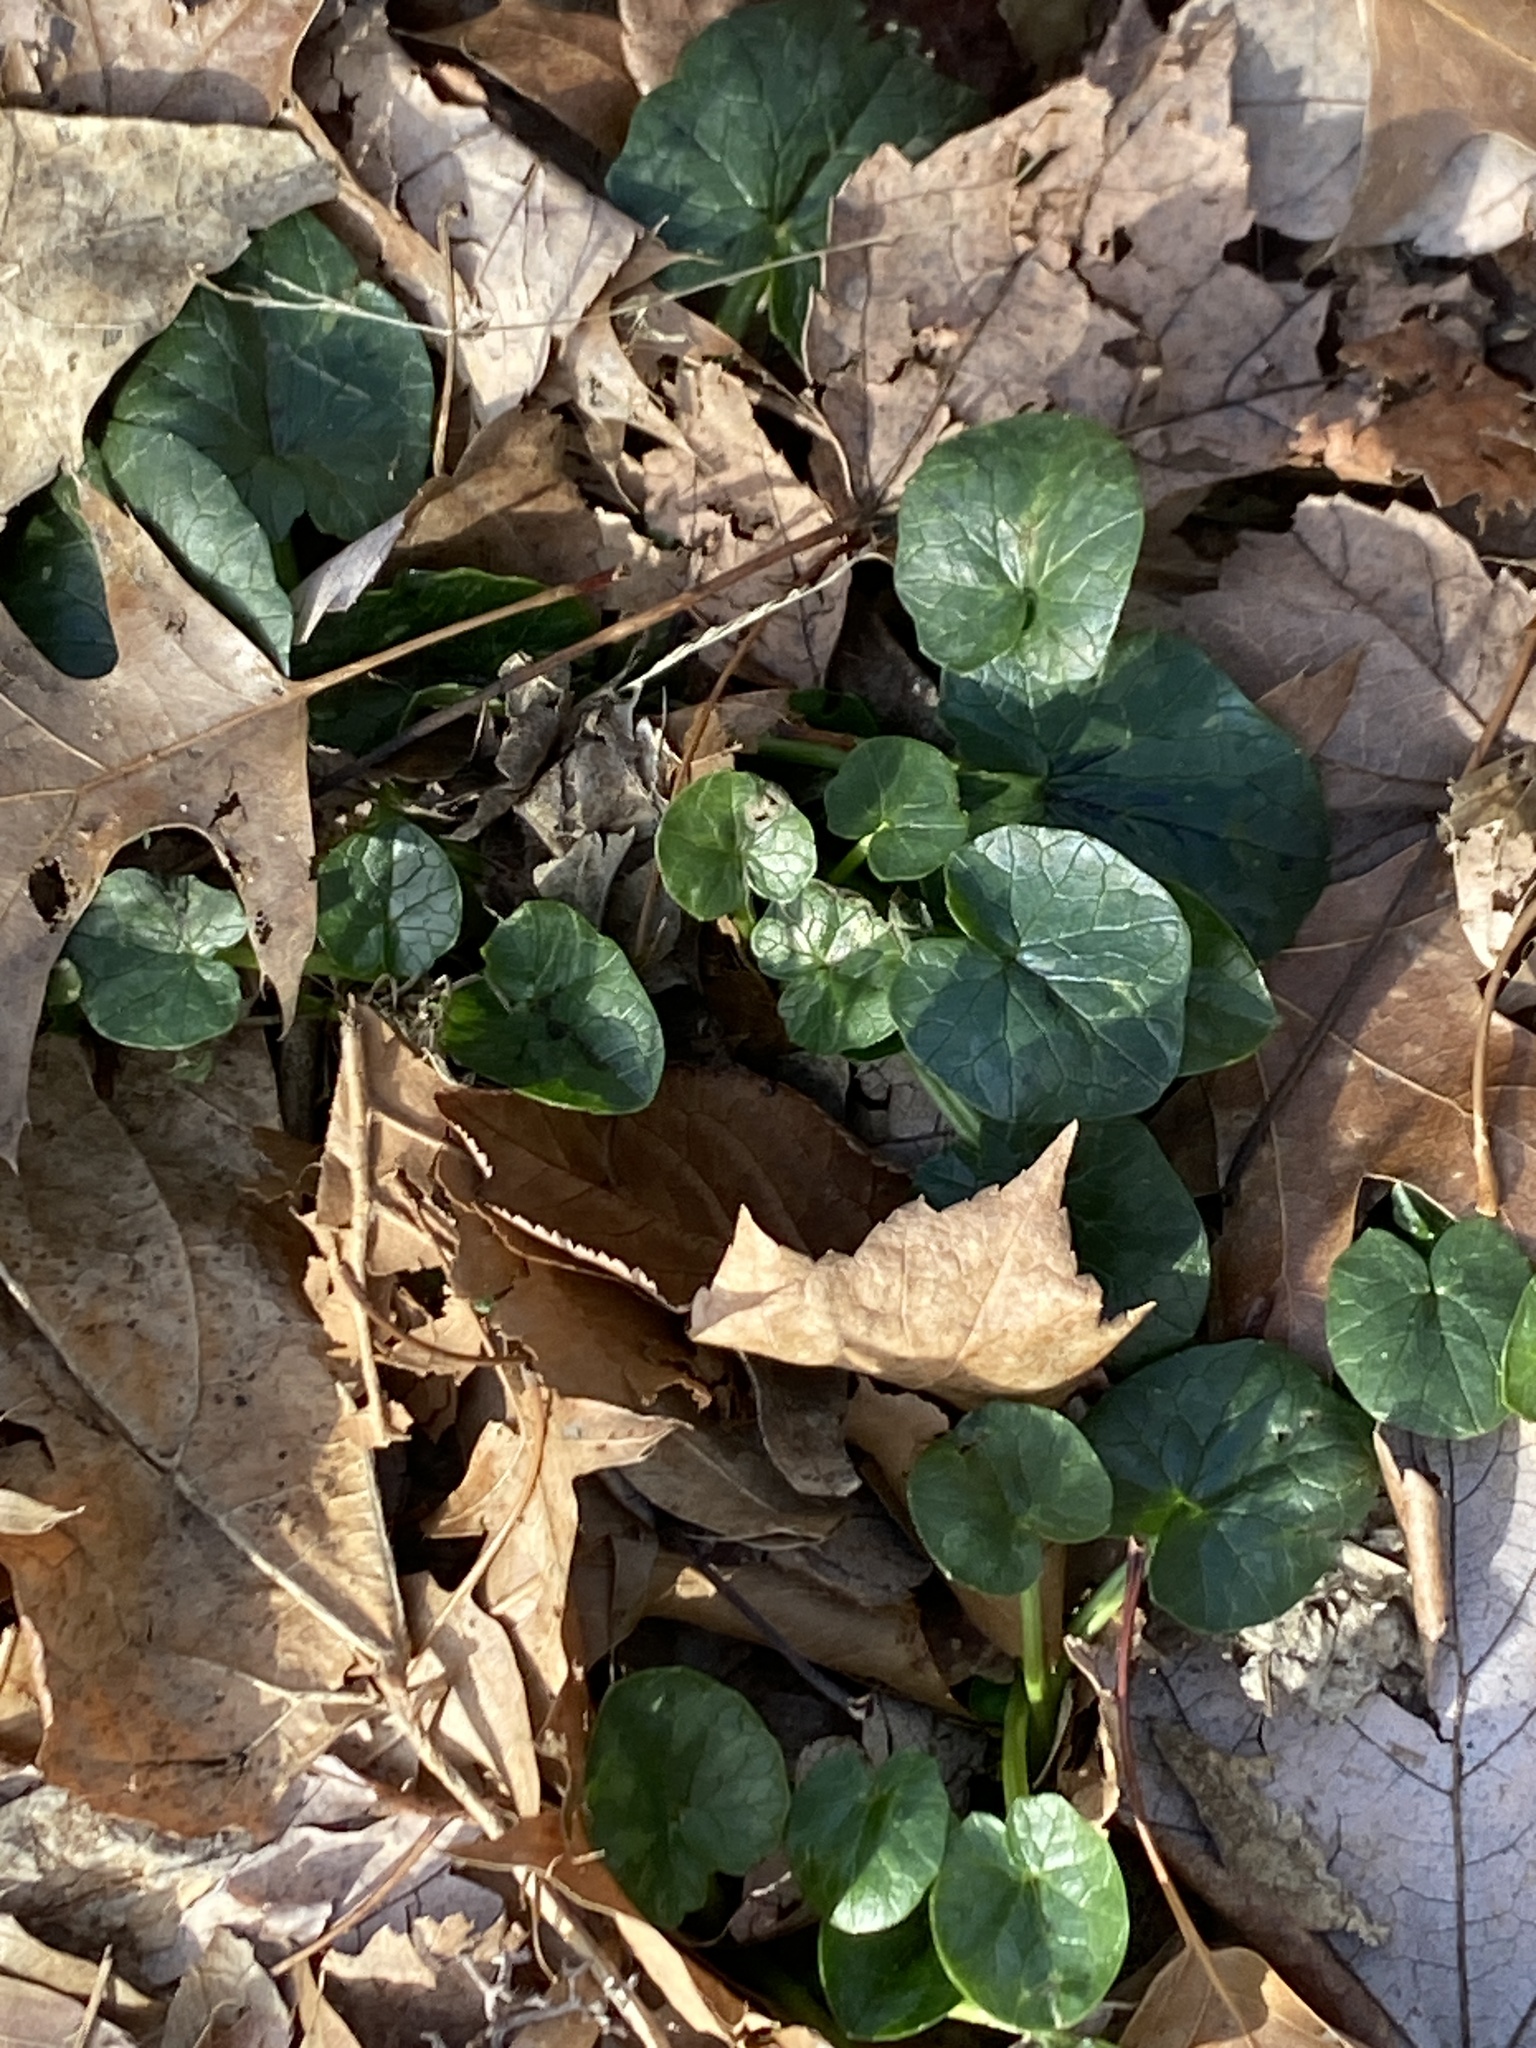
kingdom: Plantae
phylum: Tracheophyta
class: Magnoliopsida
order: Ranunculales
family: Ranunculaceae
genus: Ficaria
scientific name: Ficaria verna
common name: Lesser celandine
